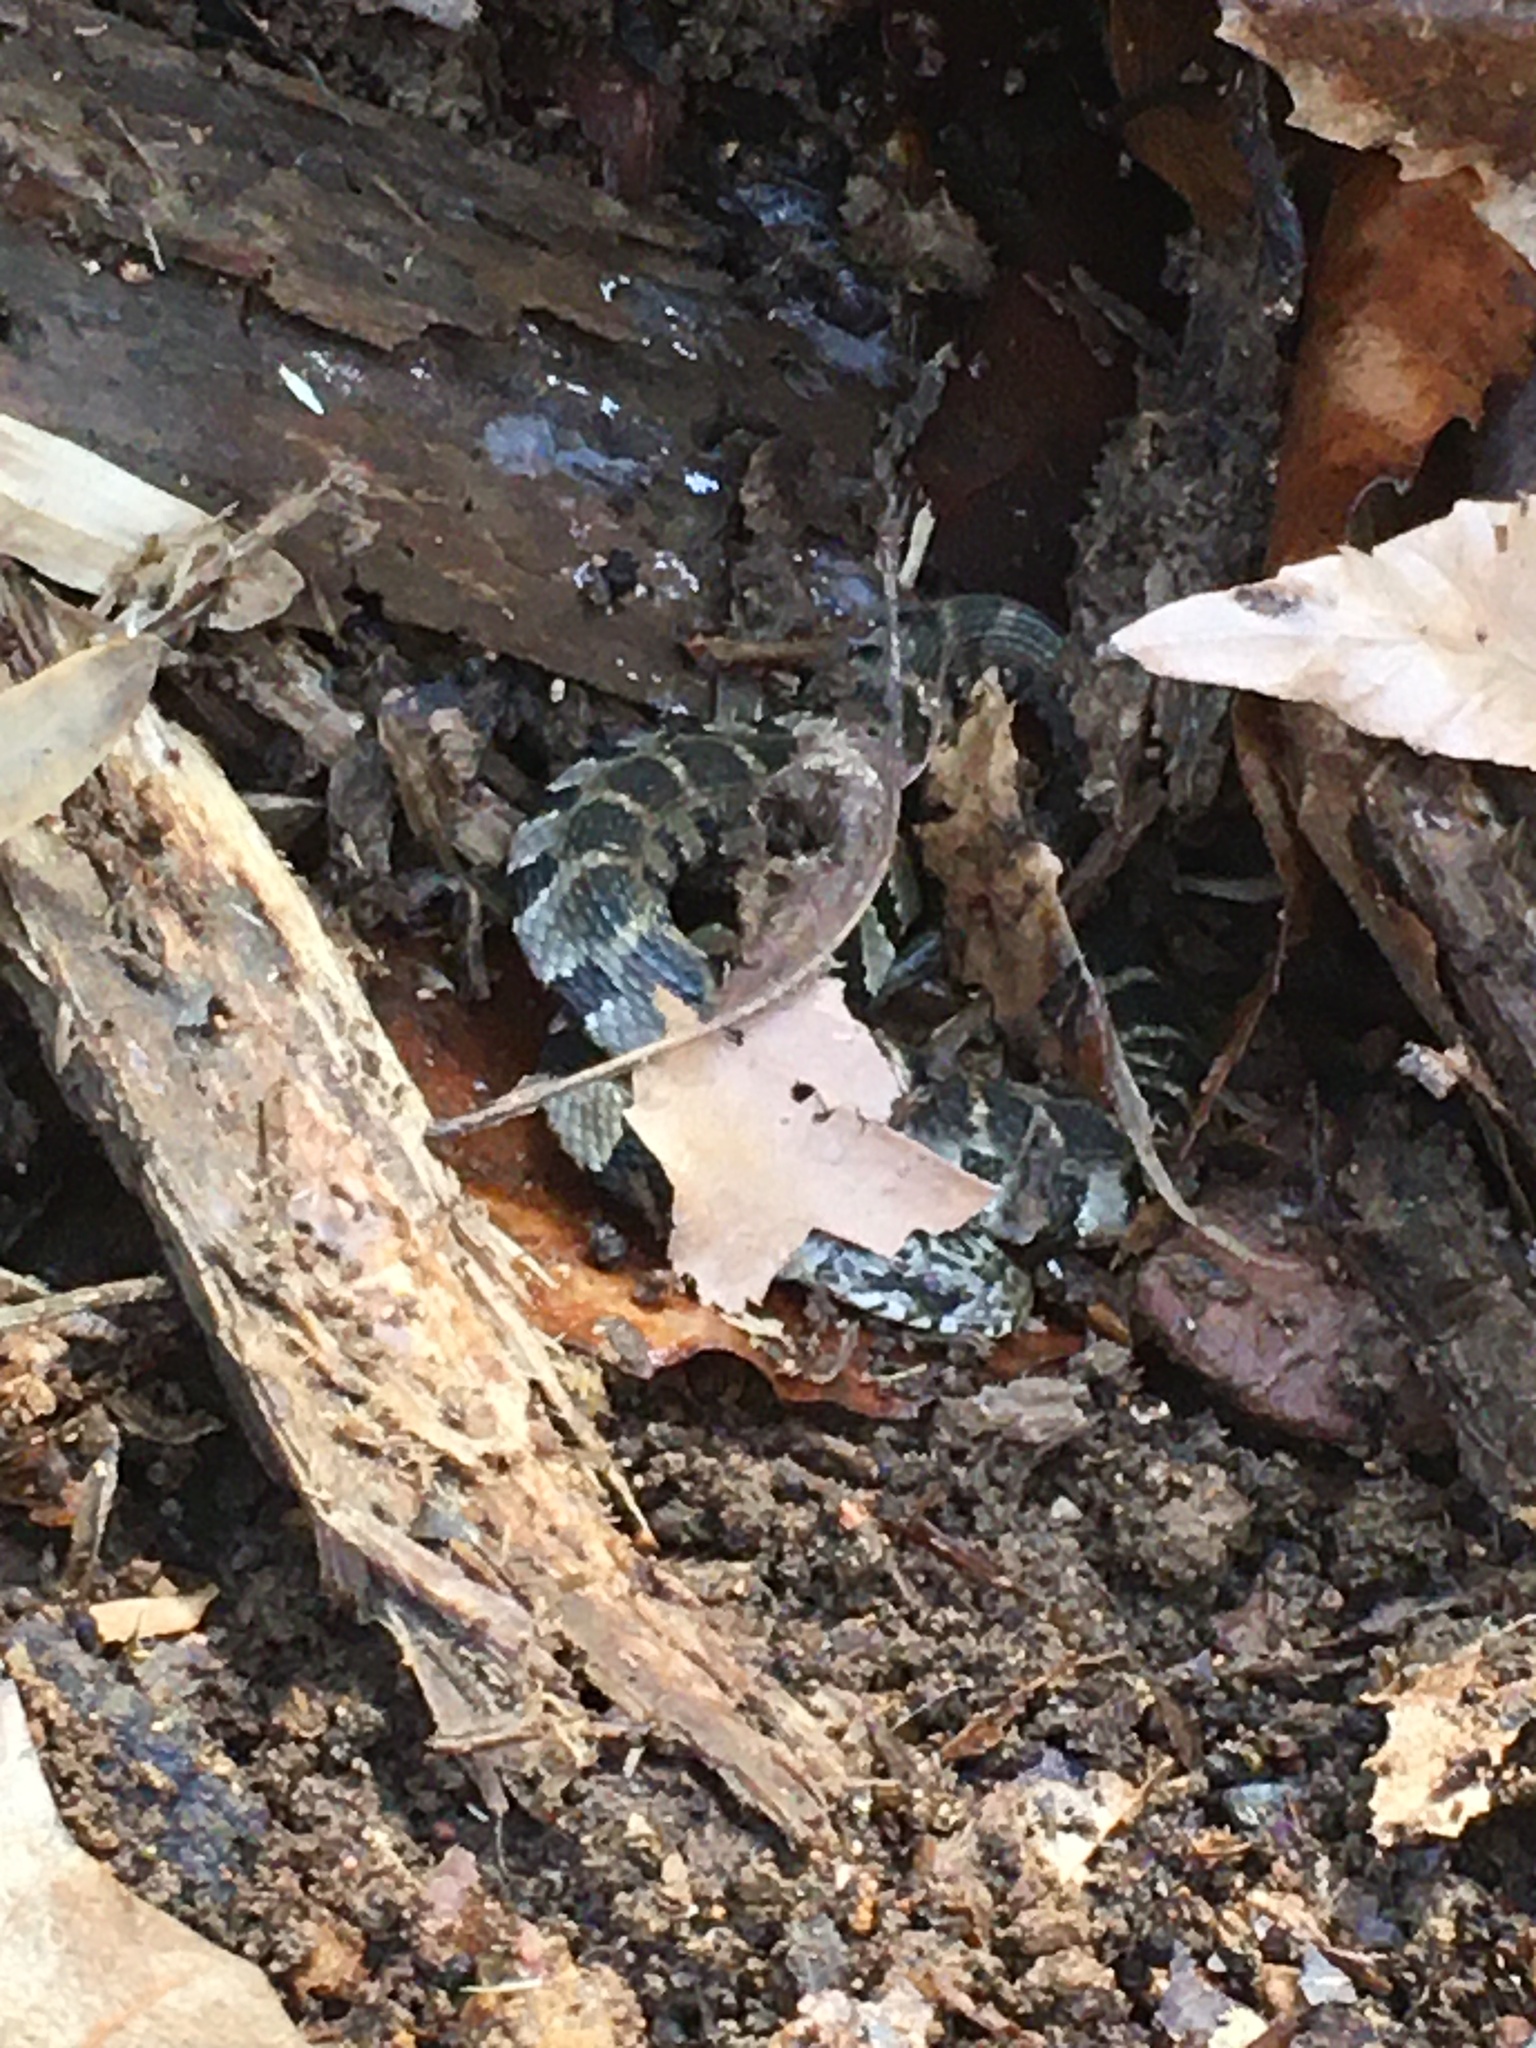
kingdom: Animalia
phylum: Chordata
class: Squamata
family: Colubridae
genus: Nerodia
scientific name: Nerodia sipedon
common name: Northern water snake
